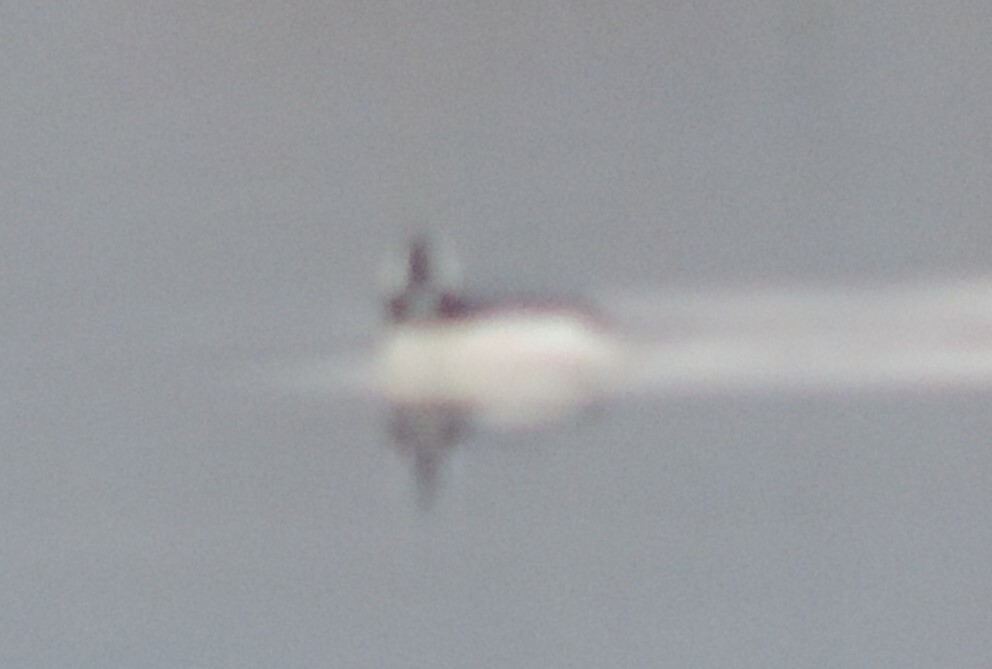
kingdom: Animalia
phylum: Chordata
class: Aves
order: Anseriformes
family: Anatidae
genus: Bucephala
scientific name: Bucephala albeola
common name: Bufflehead
